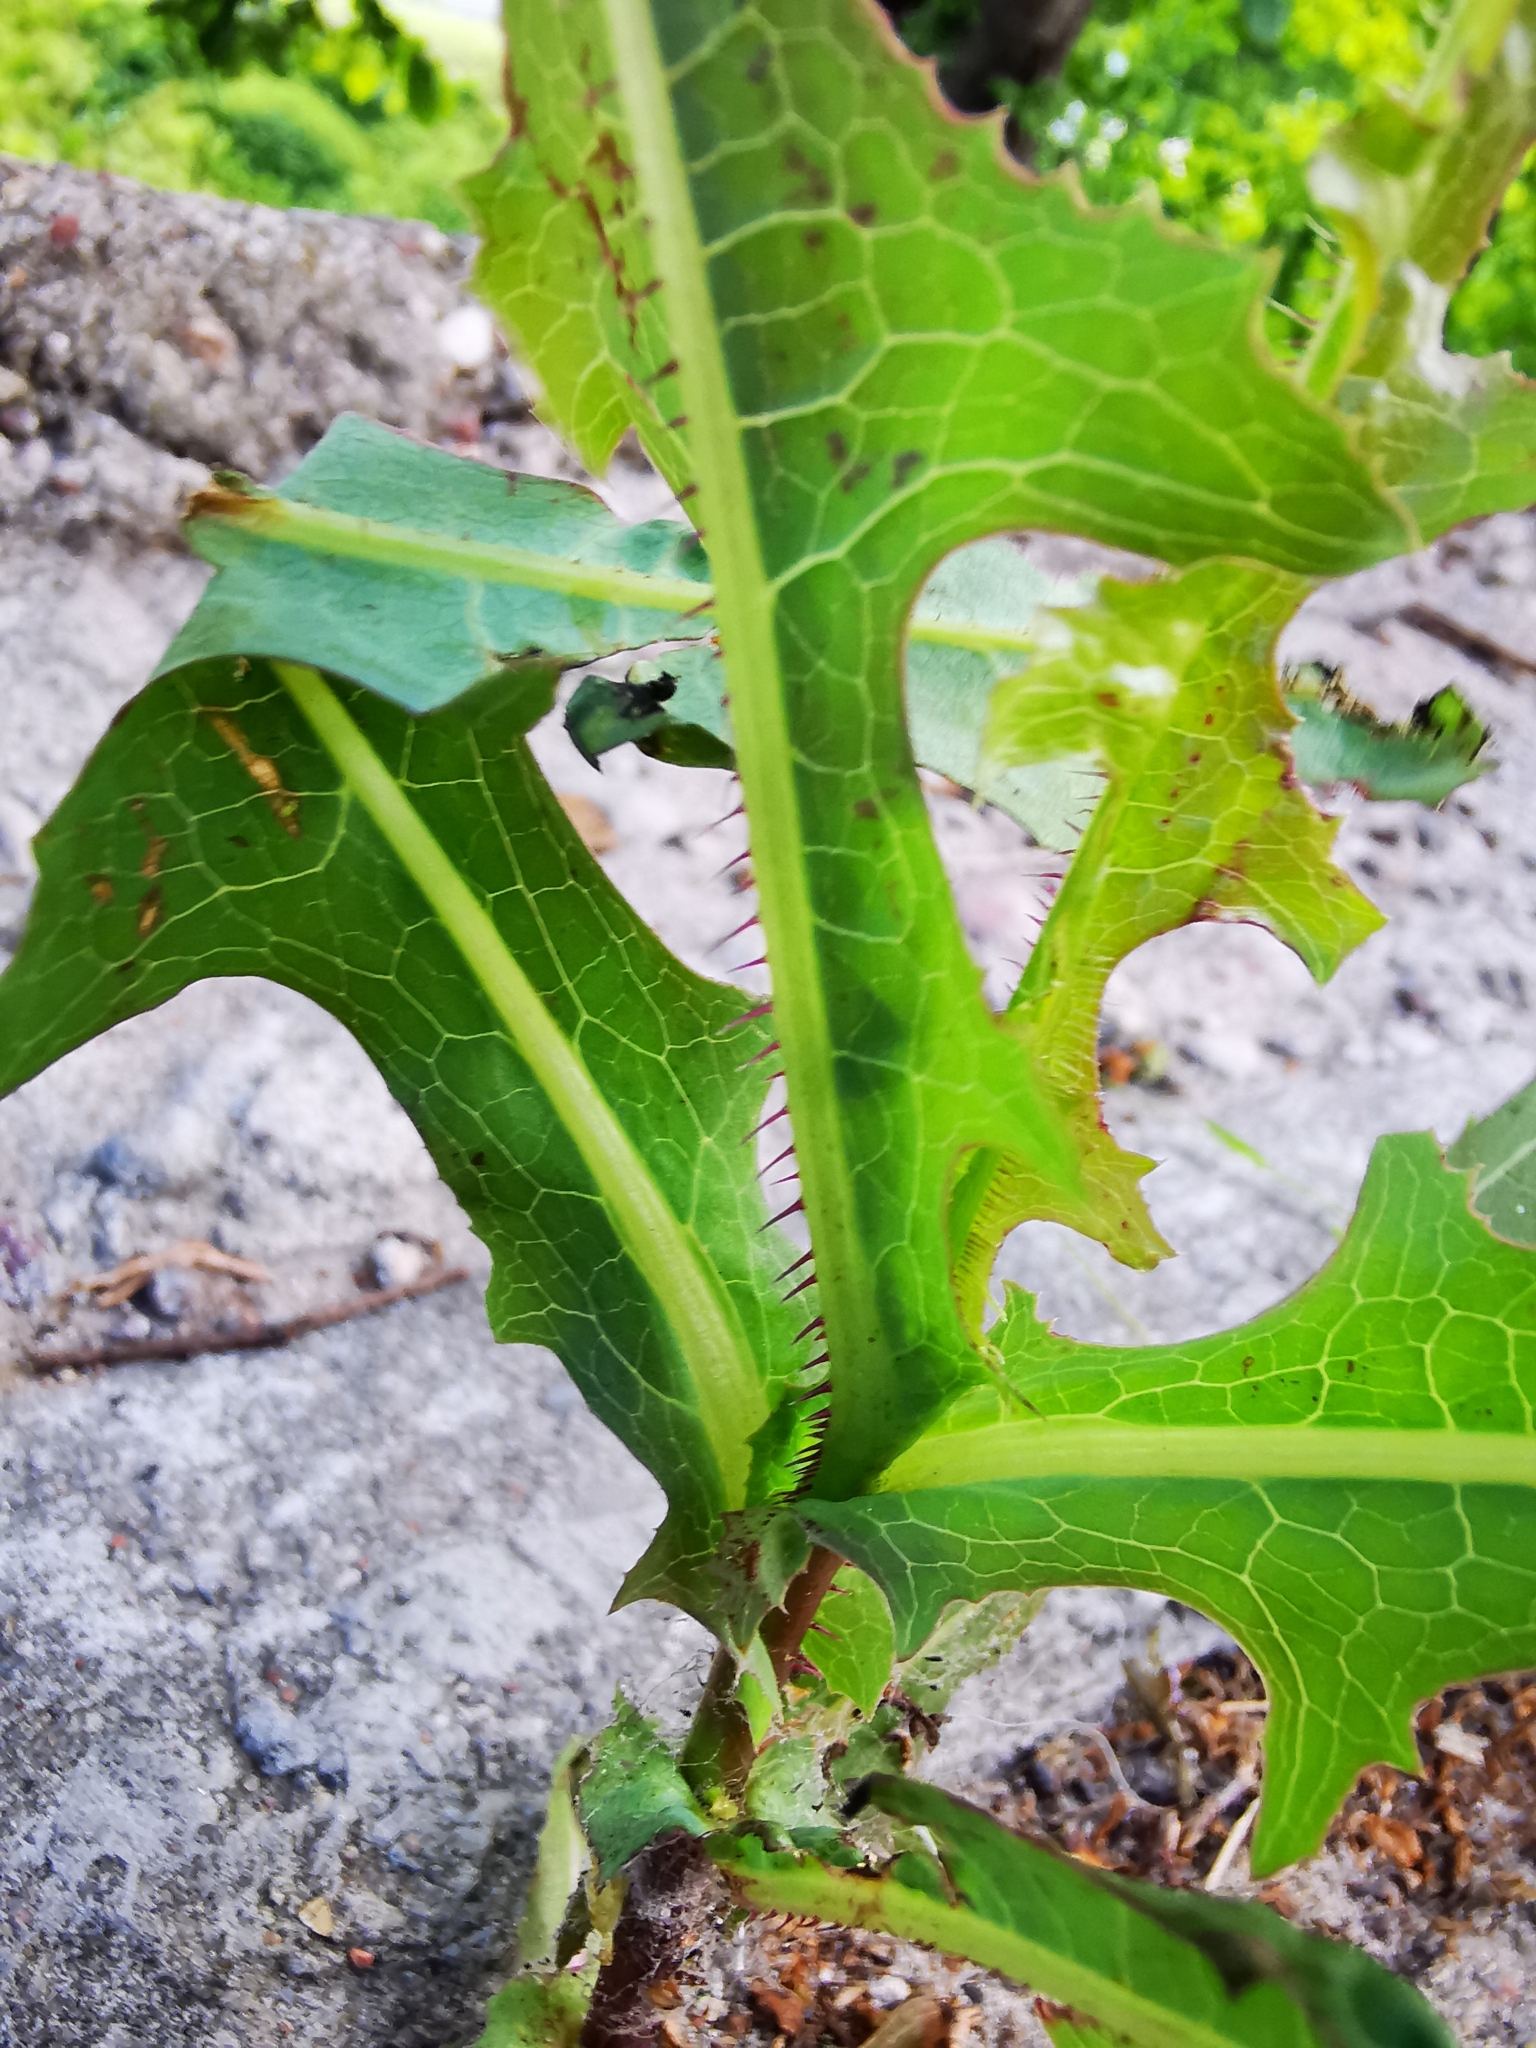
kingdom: Plantae
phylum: Tracheophyta
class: Magnoliopsida
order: Asterales
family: Asteraceae
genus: Lactuca
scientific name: Lactuca serriola
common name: Prickly lettuce
